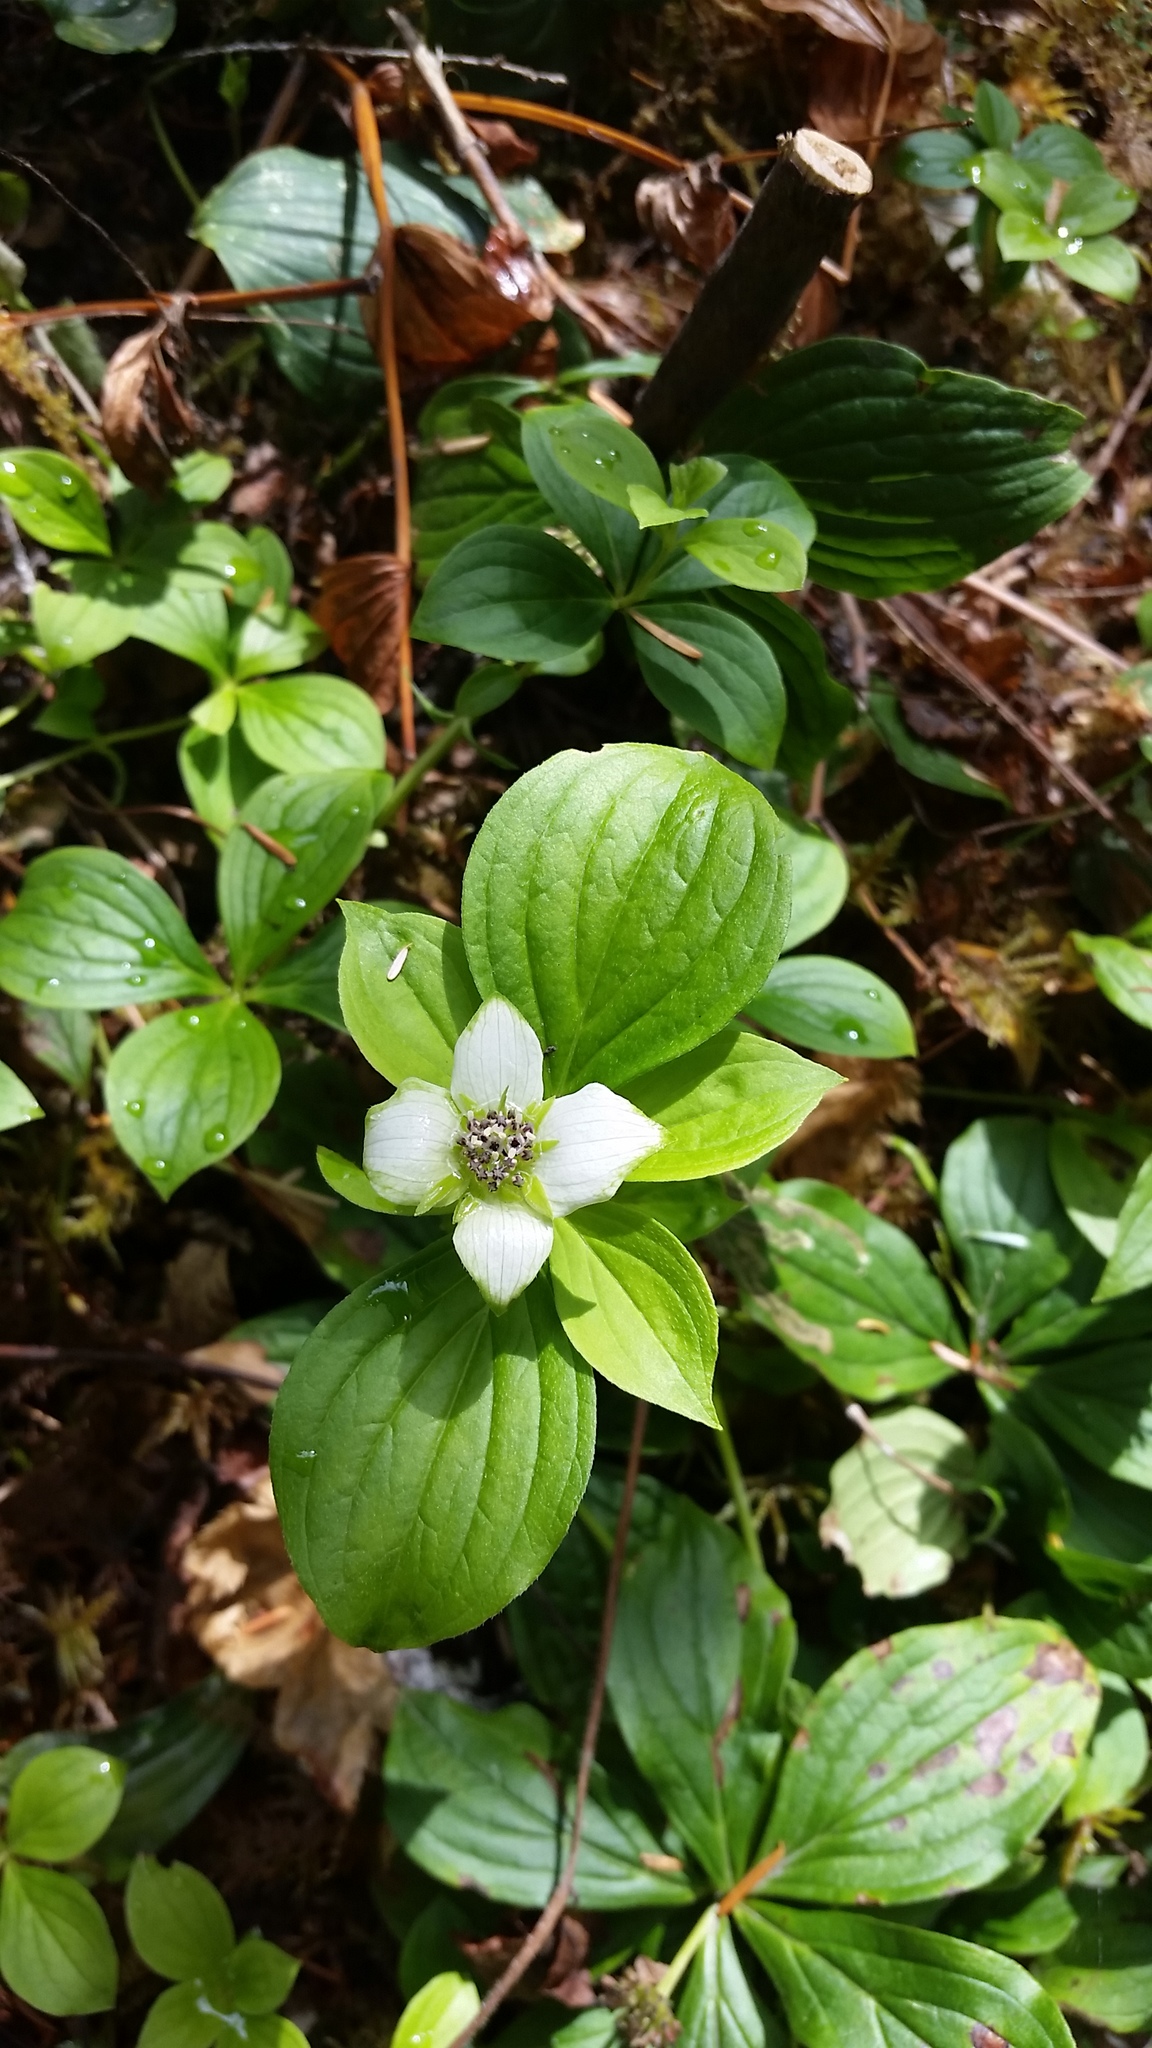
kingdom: Plantae
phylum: Tracheophyta
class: Magnoliopsida
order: Cornales
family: Cornaceae
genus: Cornus
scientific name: Cornus unalaschkensis
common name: Alaska bunchberry
